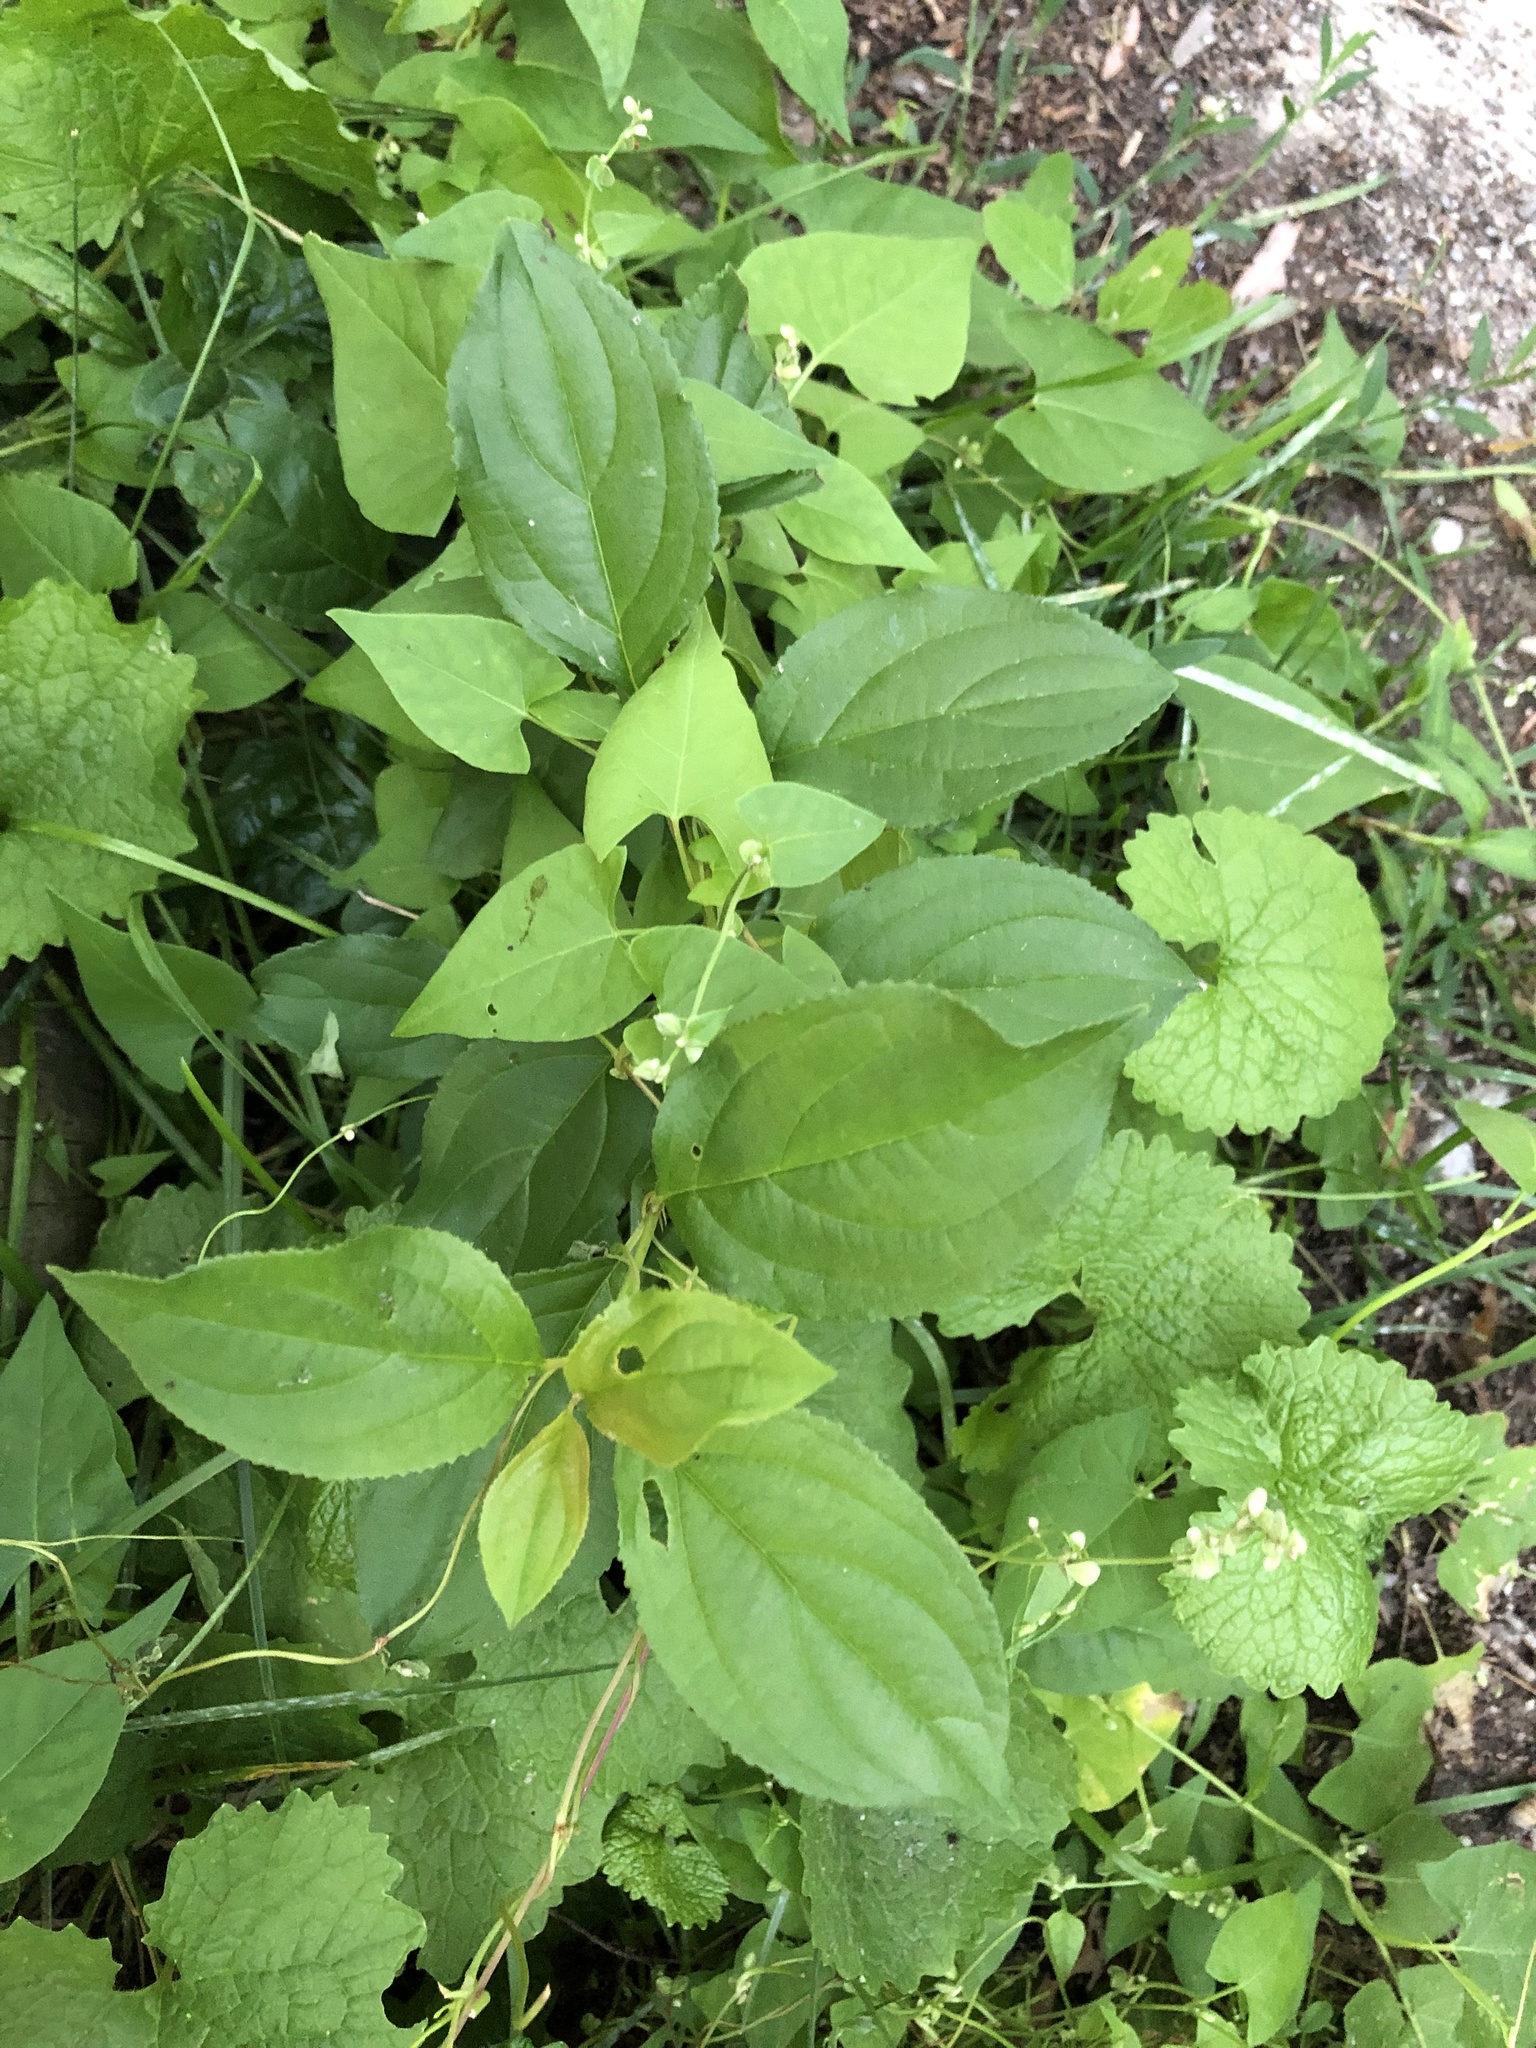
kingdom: Plantae
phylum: Tracheophyta
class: Magnoliopsida
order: Rosales
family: Rhamnaceae
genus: Rhamnus
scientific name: Rhamnus cathartica
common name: Common buckthorn
